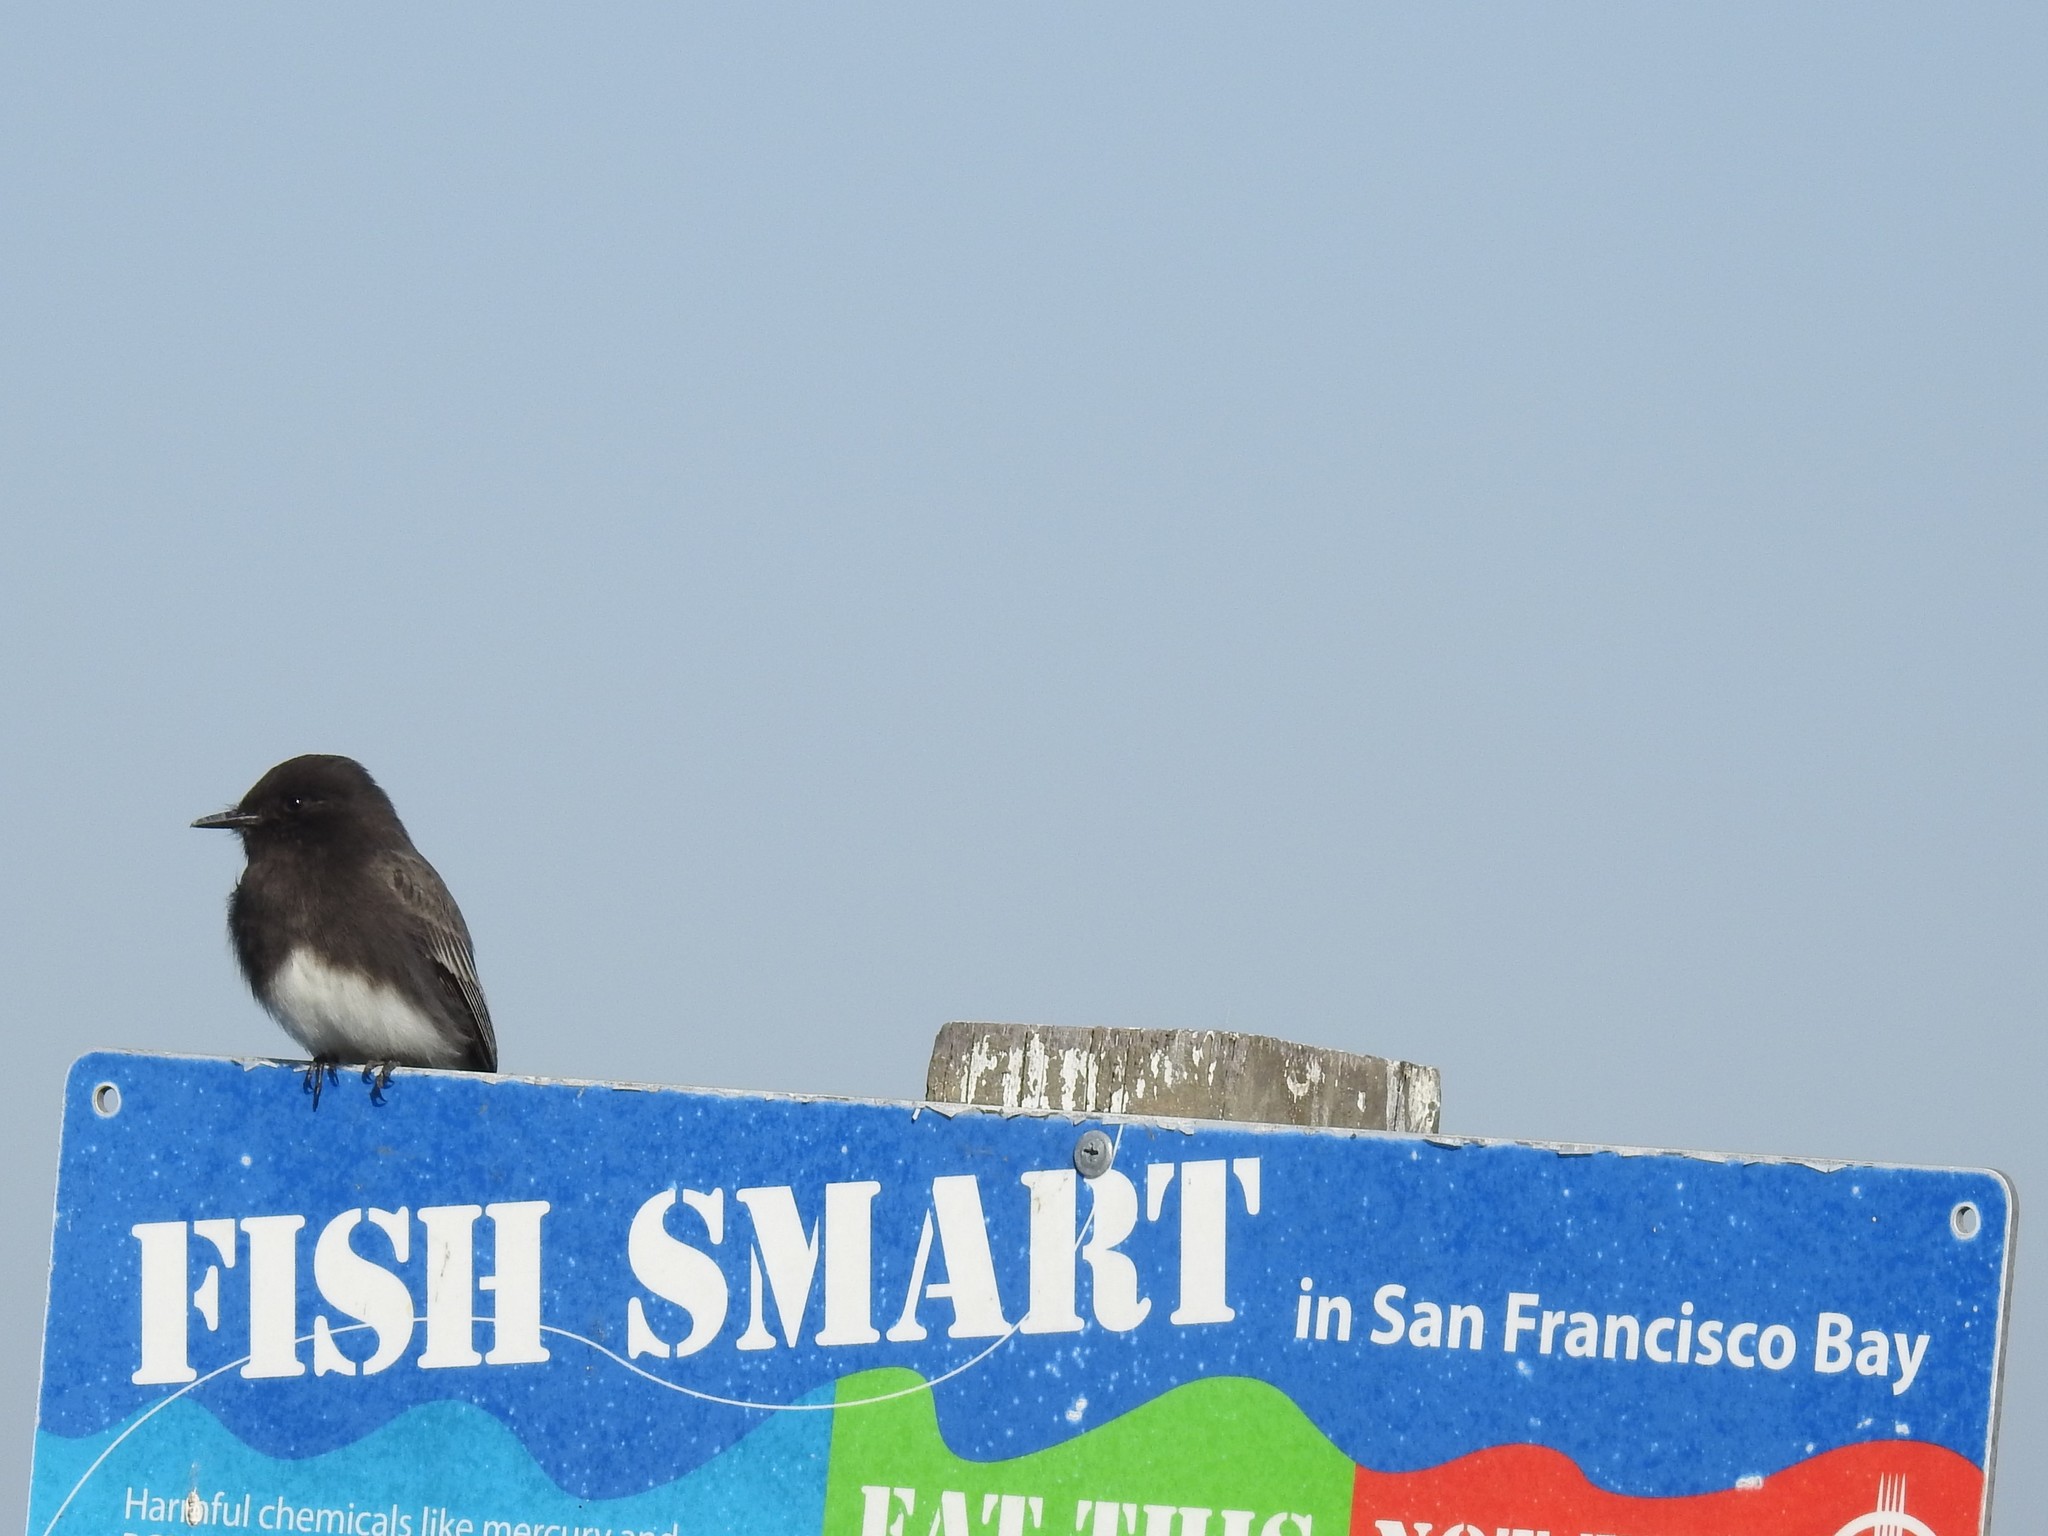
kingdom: Animalia
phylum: Chordata
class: Aves
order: Passeriformes
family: Tyrannidae
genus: Sayornis
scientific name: Sayornis nigricans
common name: Black phoebe
